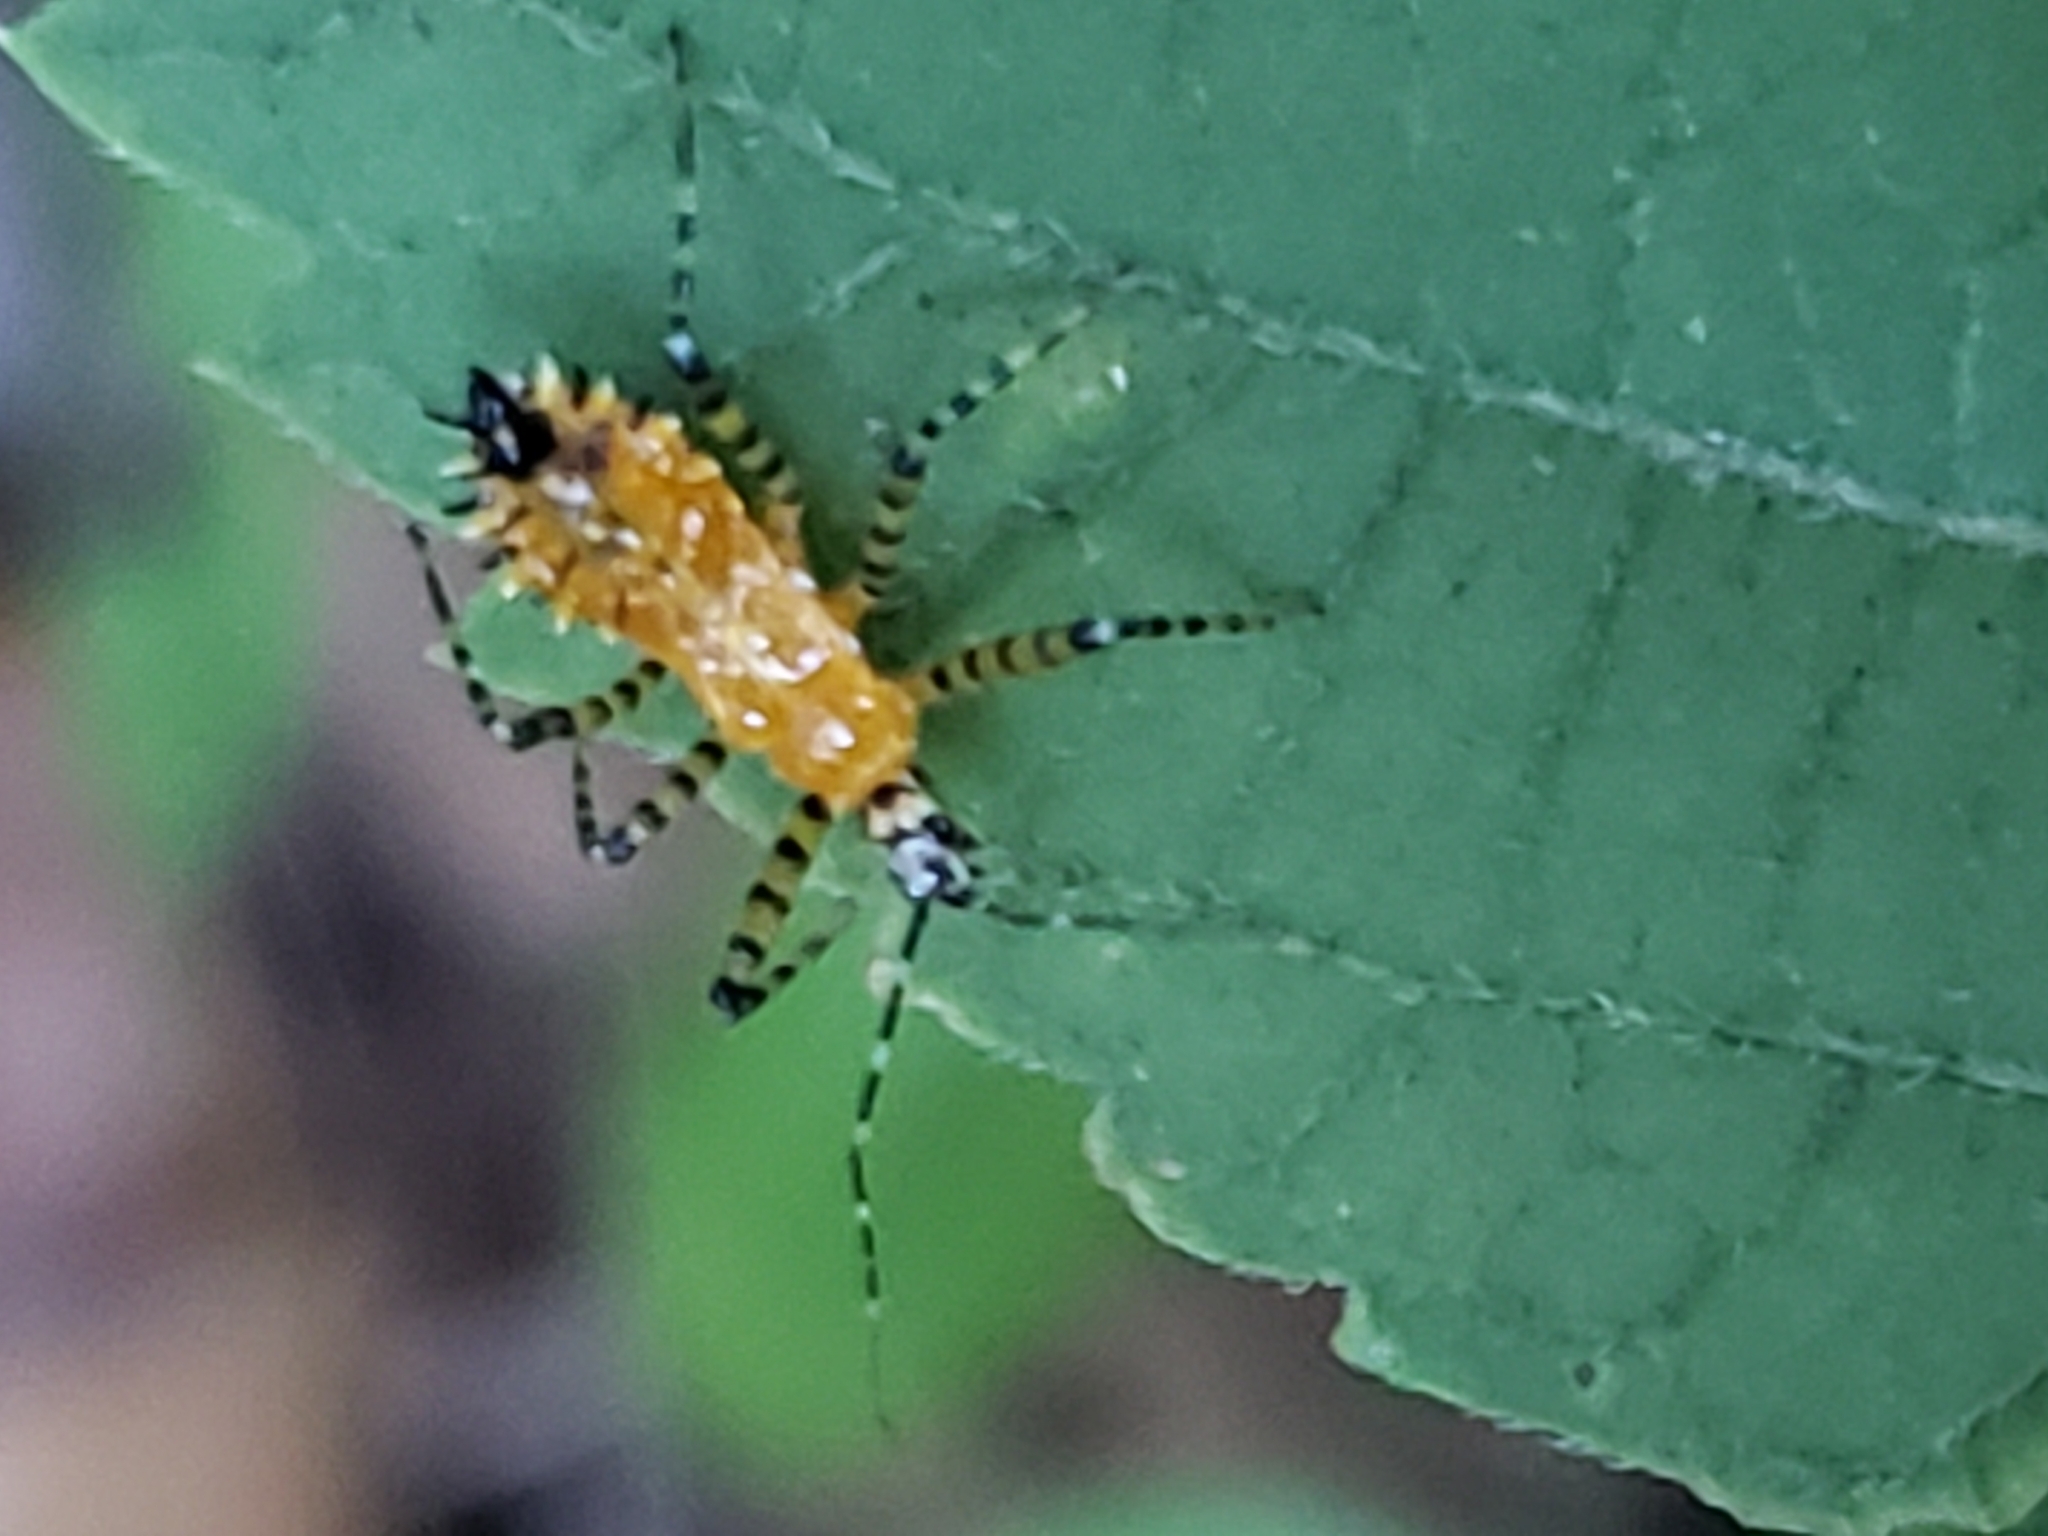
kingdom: Animalia
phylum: Arthropoda
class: Insecta
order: Hemiptera
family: Reduviidae
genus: Pselliopus
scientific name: Pselliopus barberi
